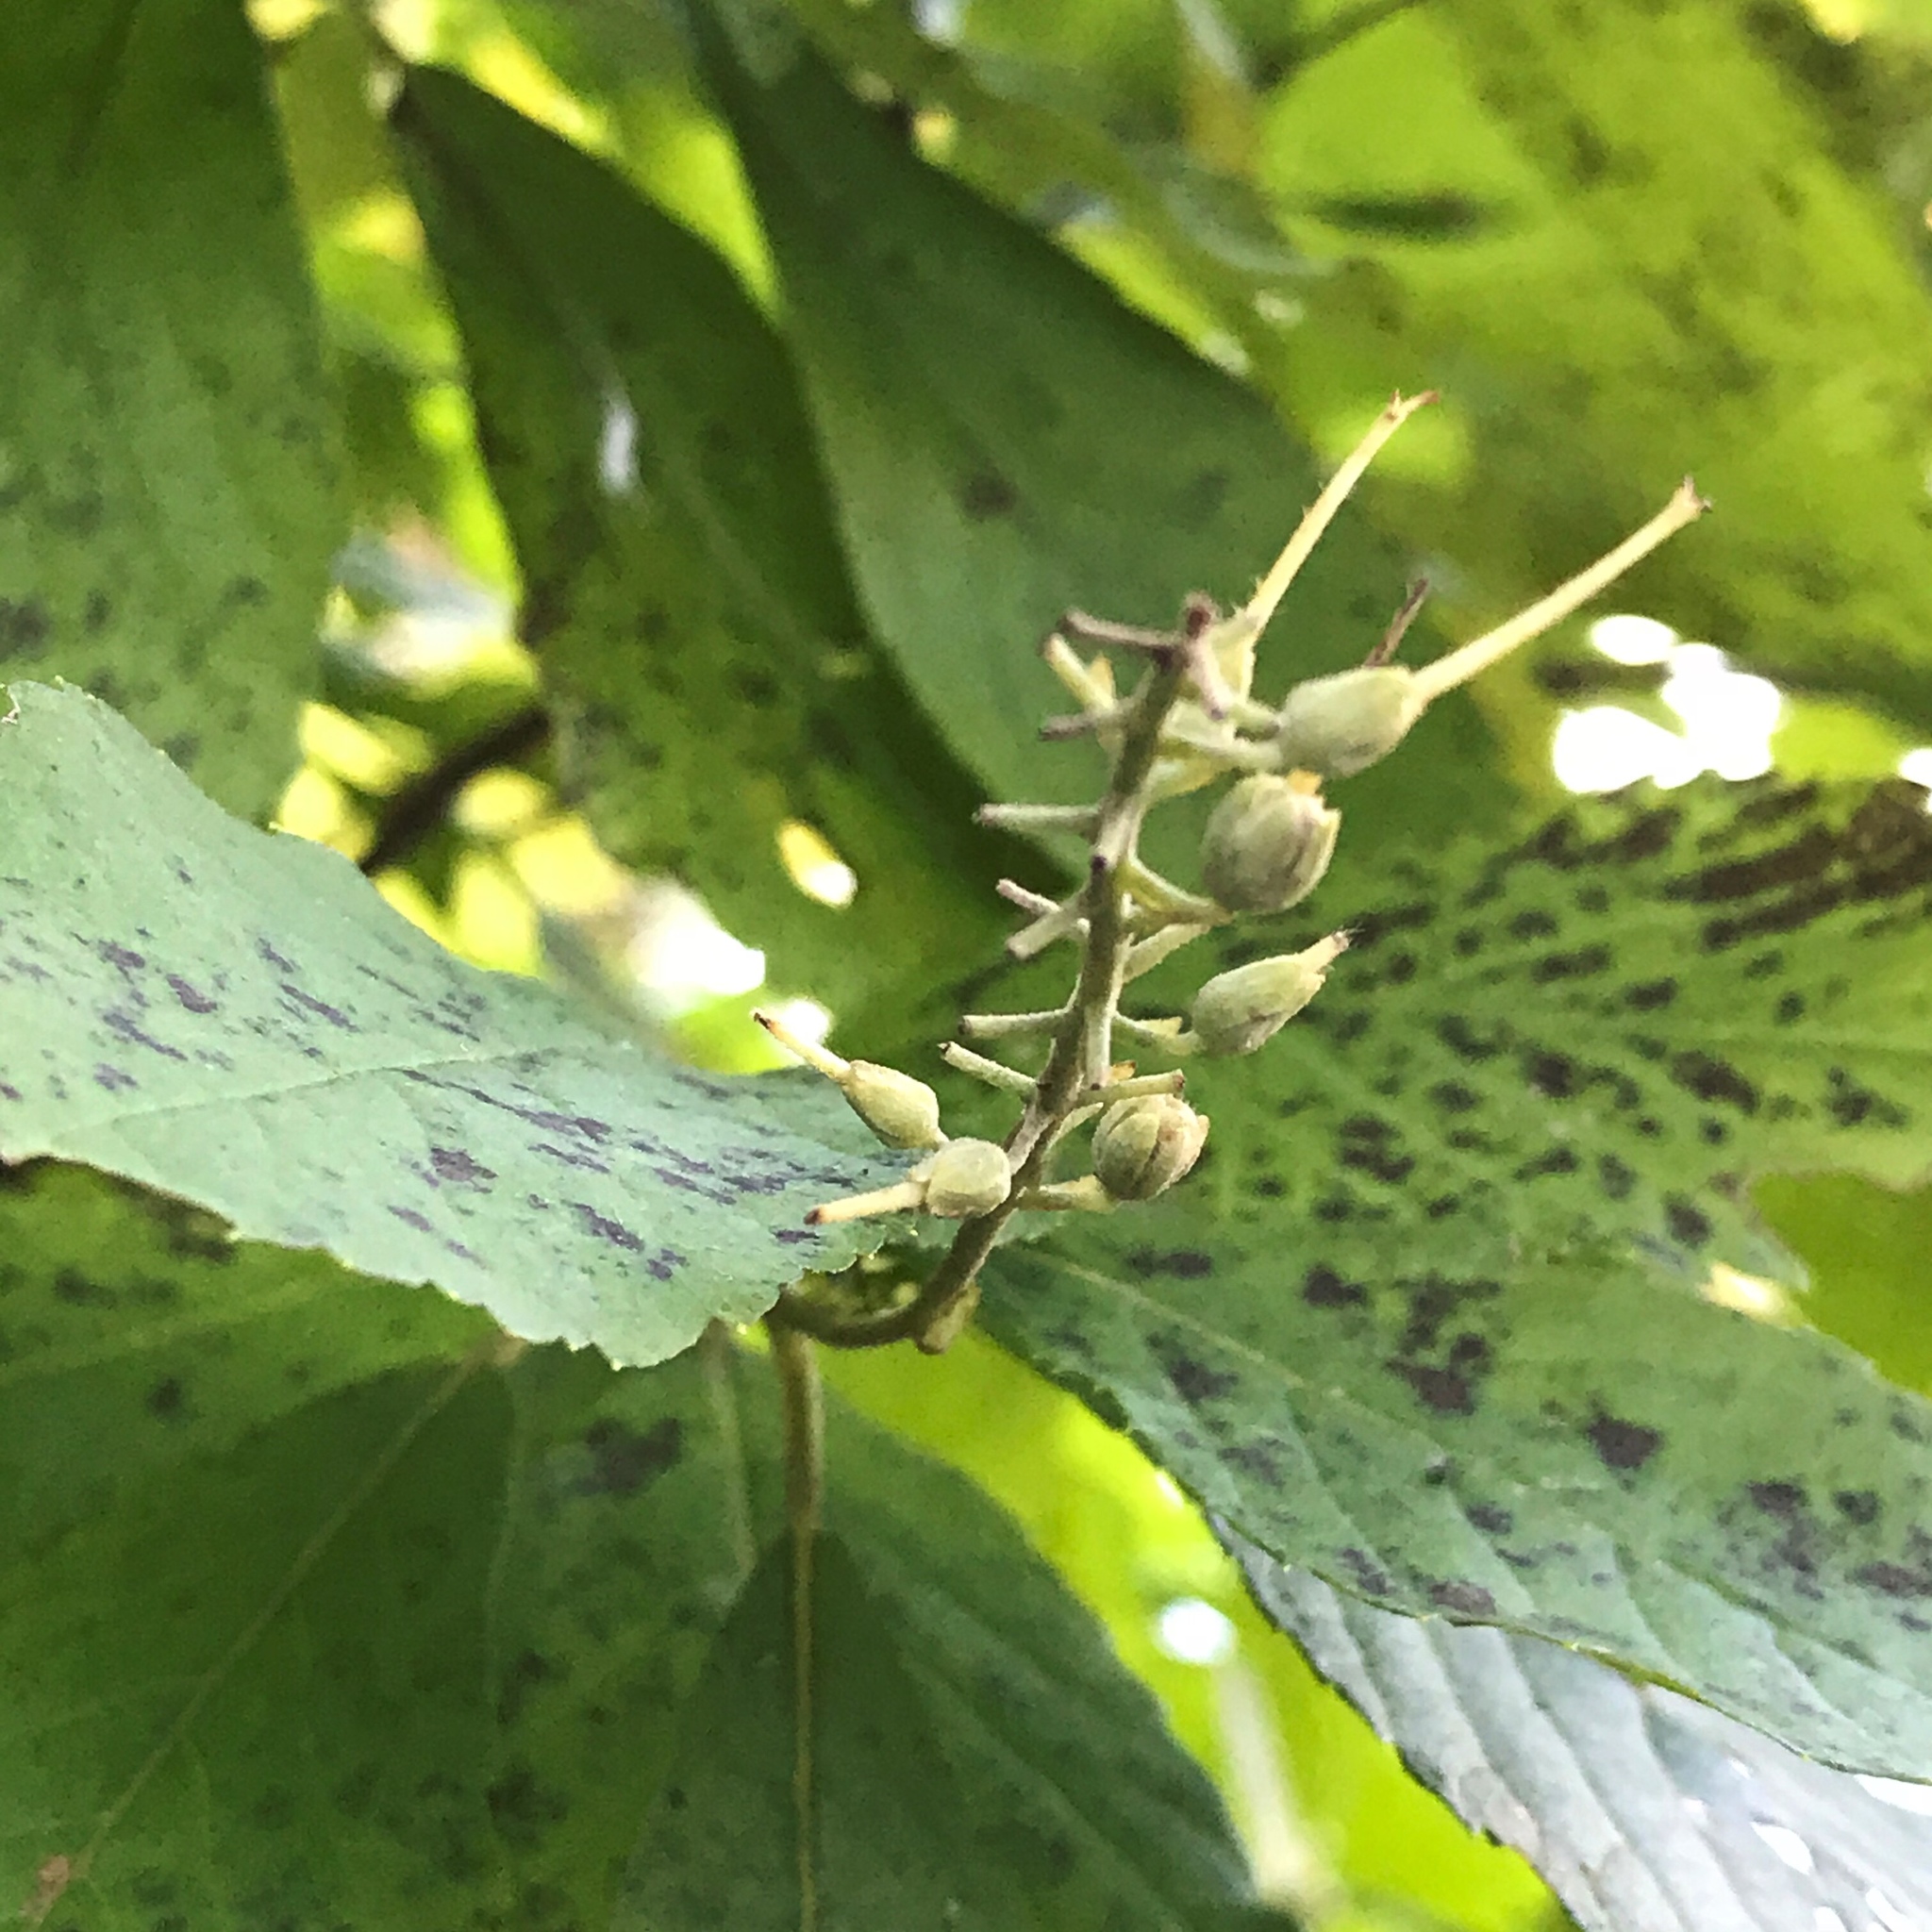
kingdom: Plantae
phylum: Tracheophyta
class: Magnoliopsida
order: Ericales
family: Clethraceae
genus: Clethra
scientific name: Clethra alnifolia
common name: Sweet pepperbush
